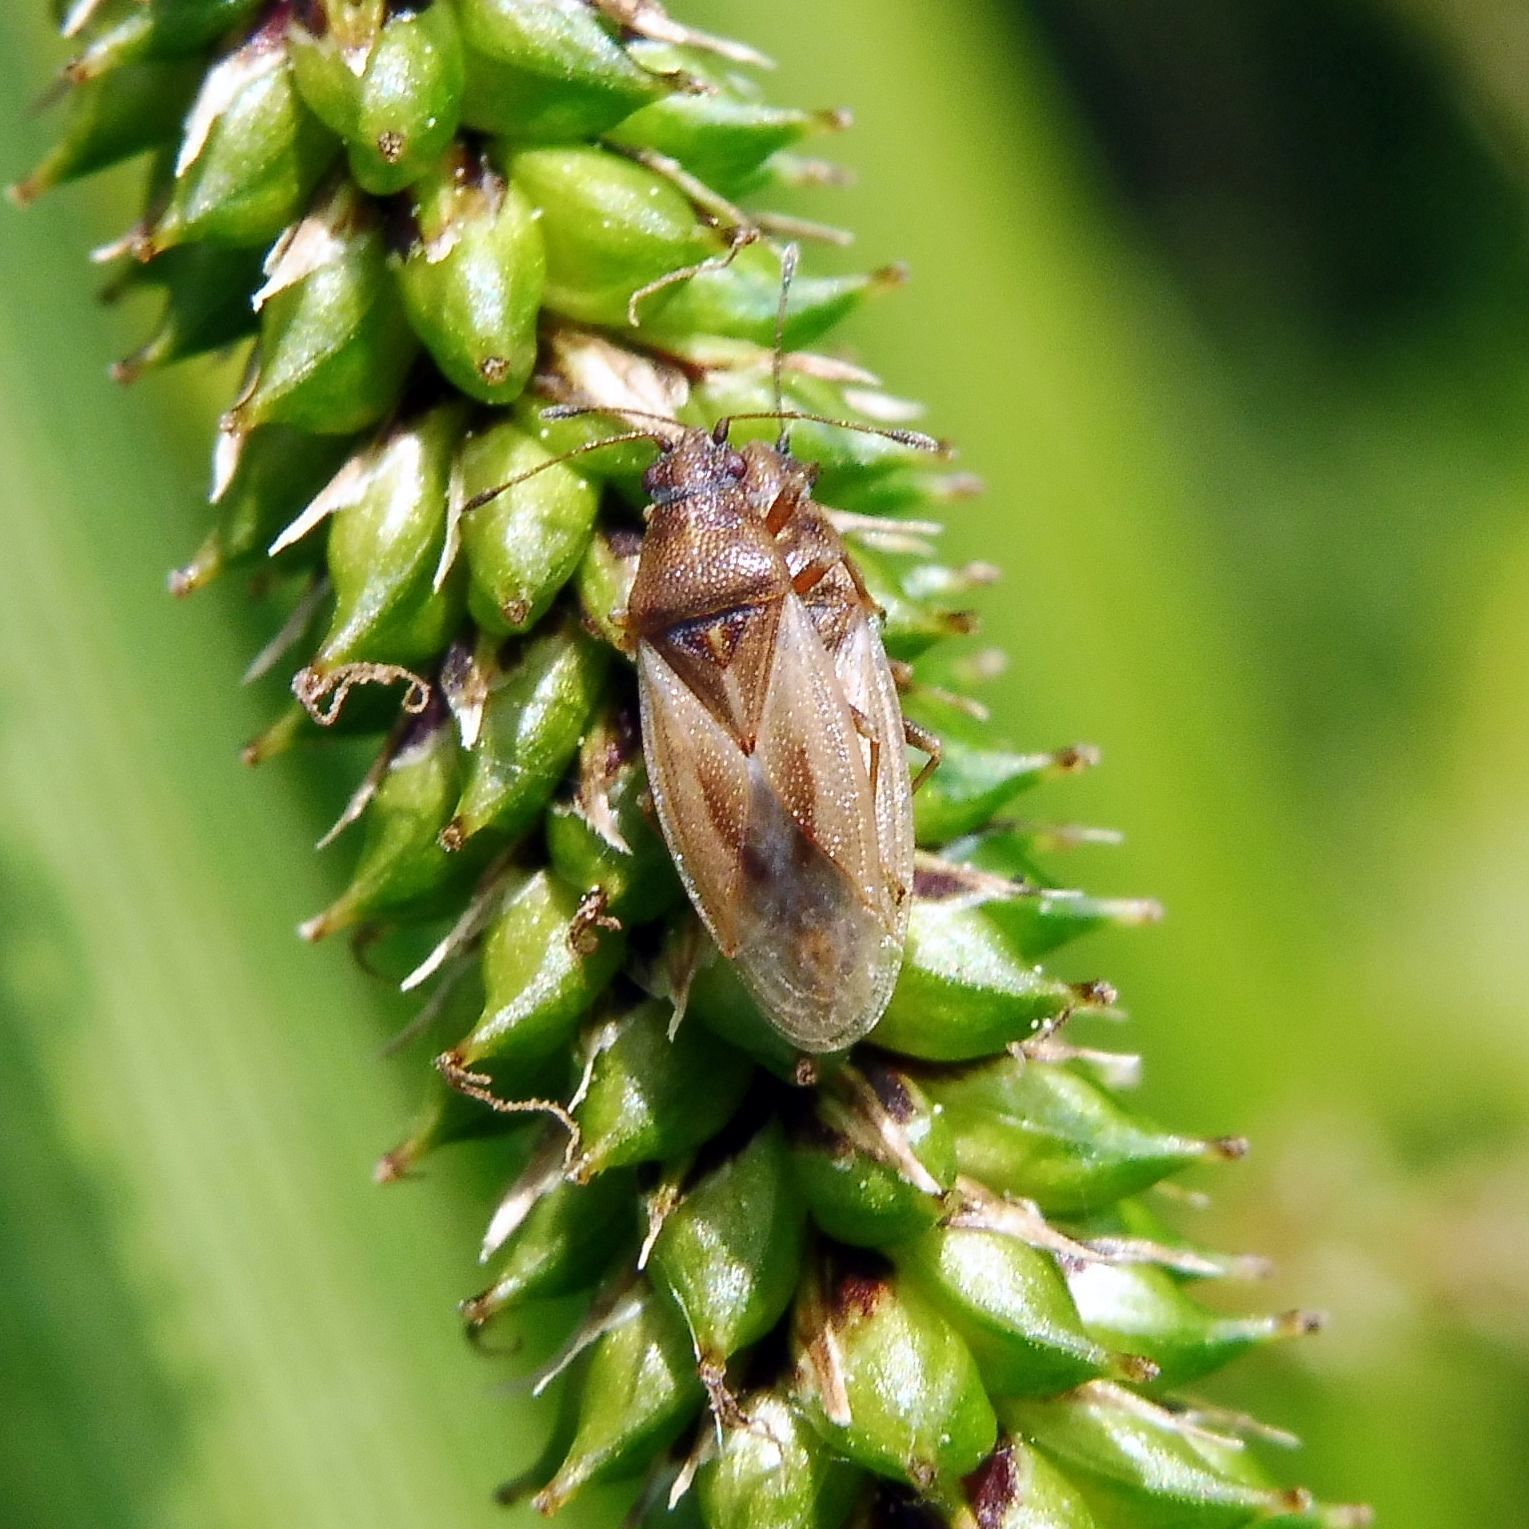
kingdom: Animalia
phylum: Arthropoda
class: Insecta
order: Hemiptera
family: Cymidae
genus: Cymus
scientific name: Cymus glandicolor
